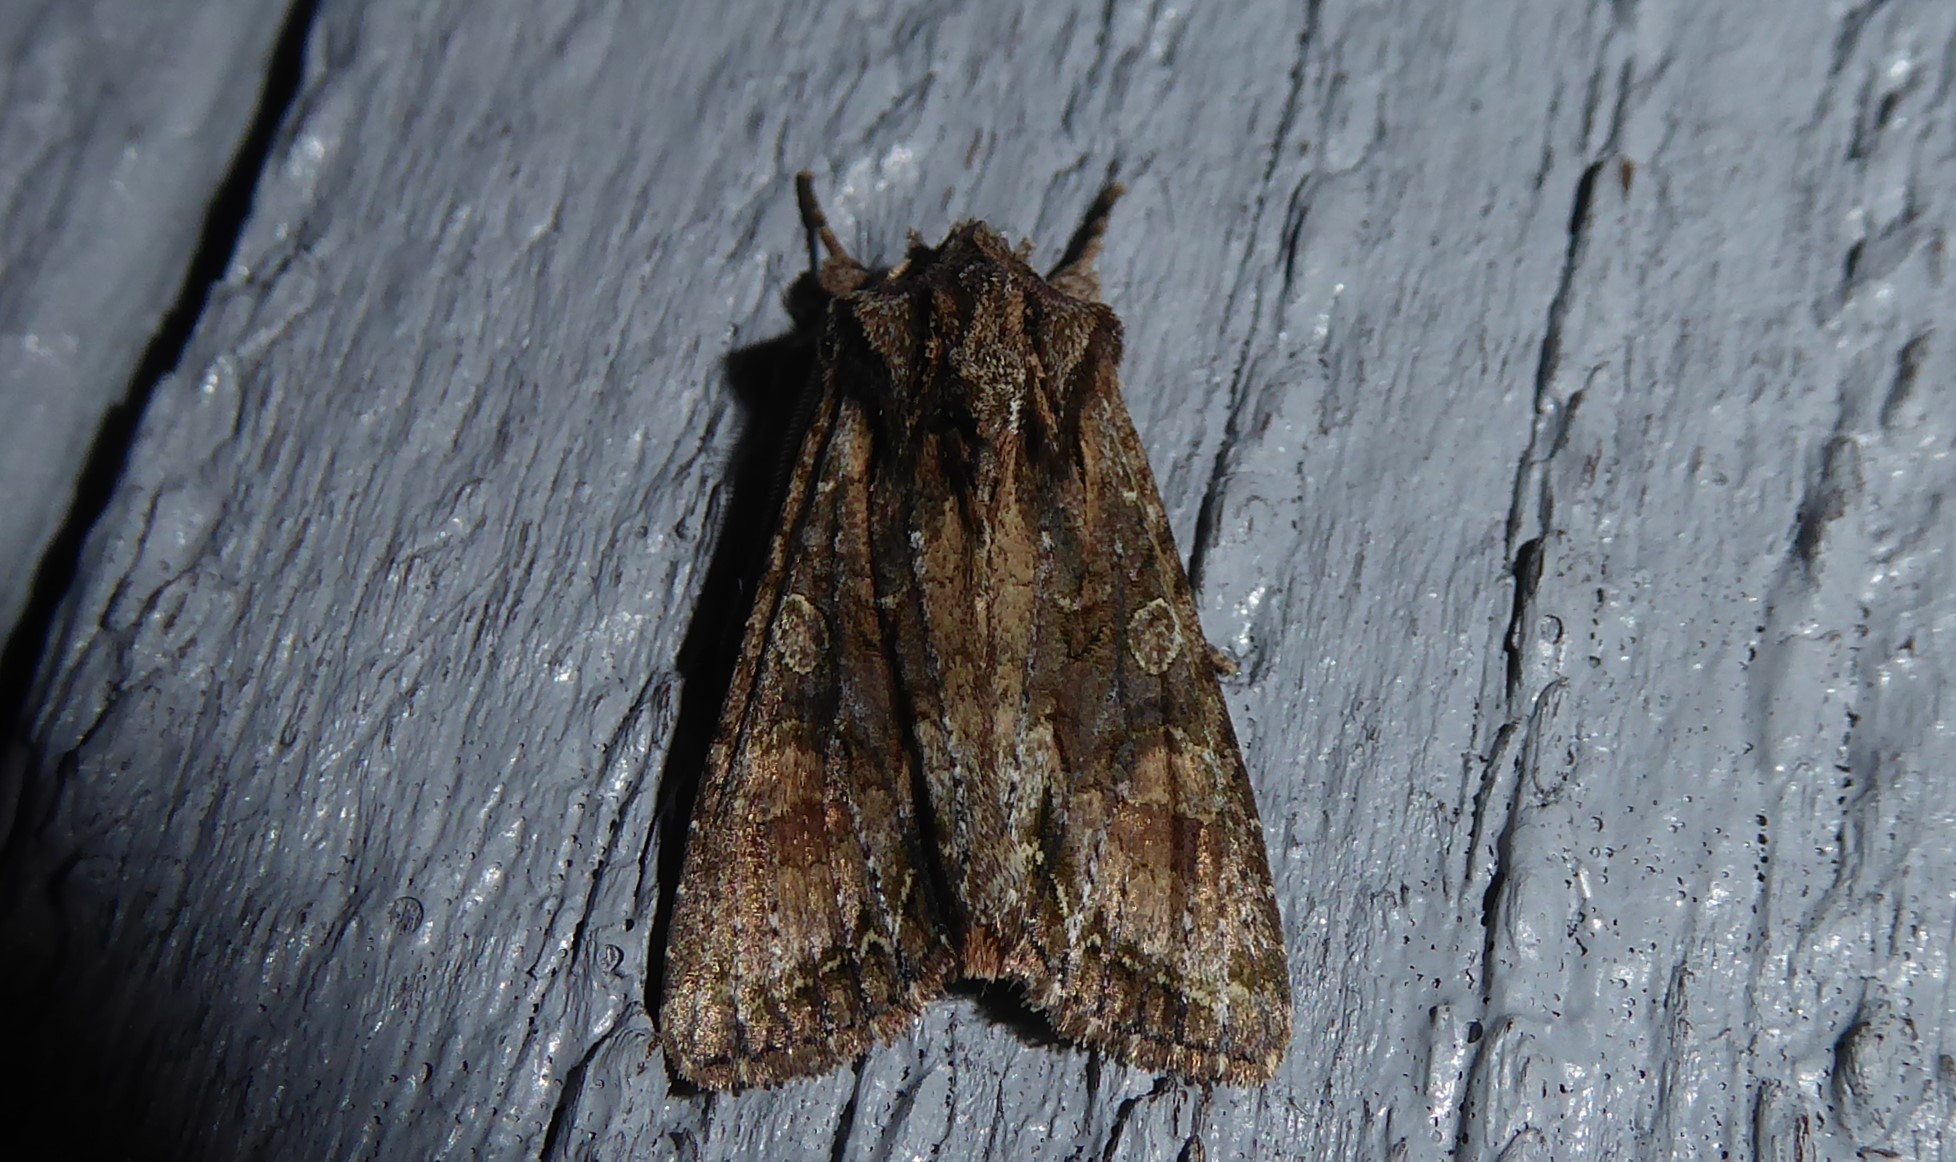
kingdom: Animalia
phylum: Arthropoda
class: Insecta
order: Lepidoptera
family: Noctuidae
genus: Ichneutica
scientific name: Ichneutica mutans
